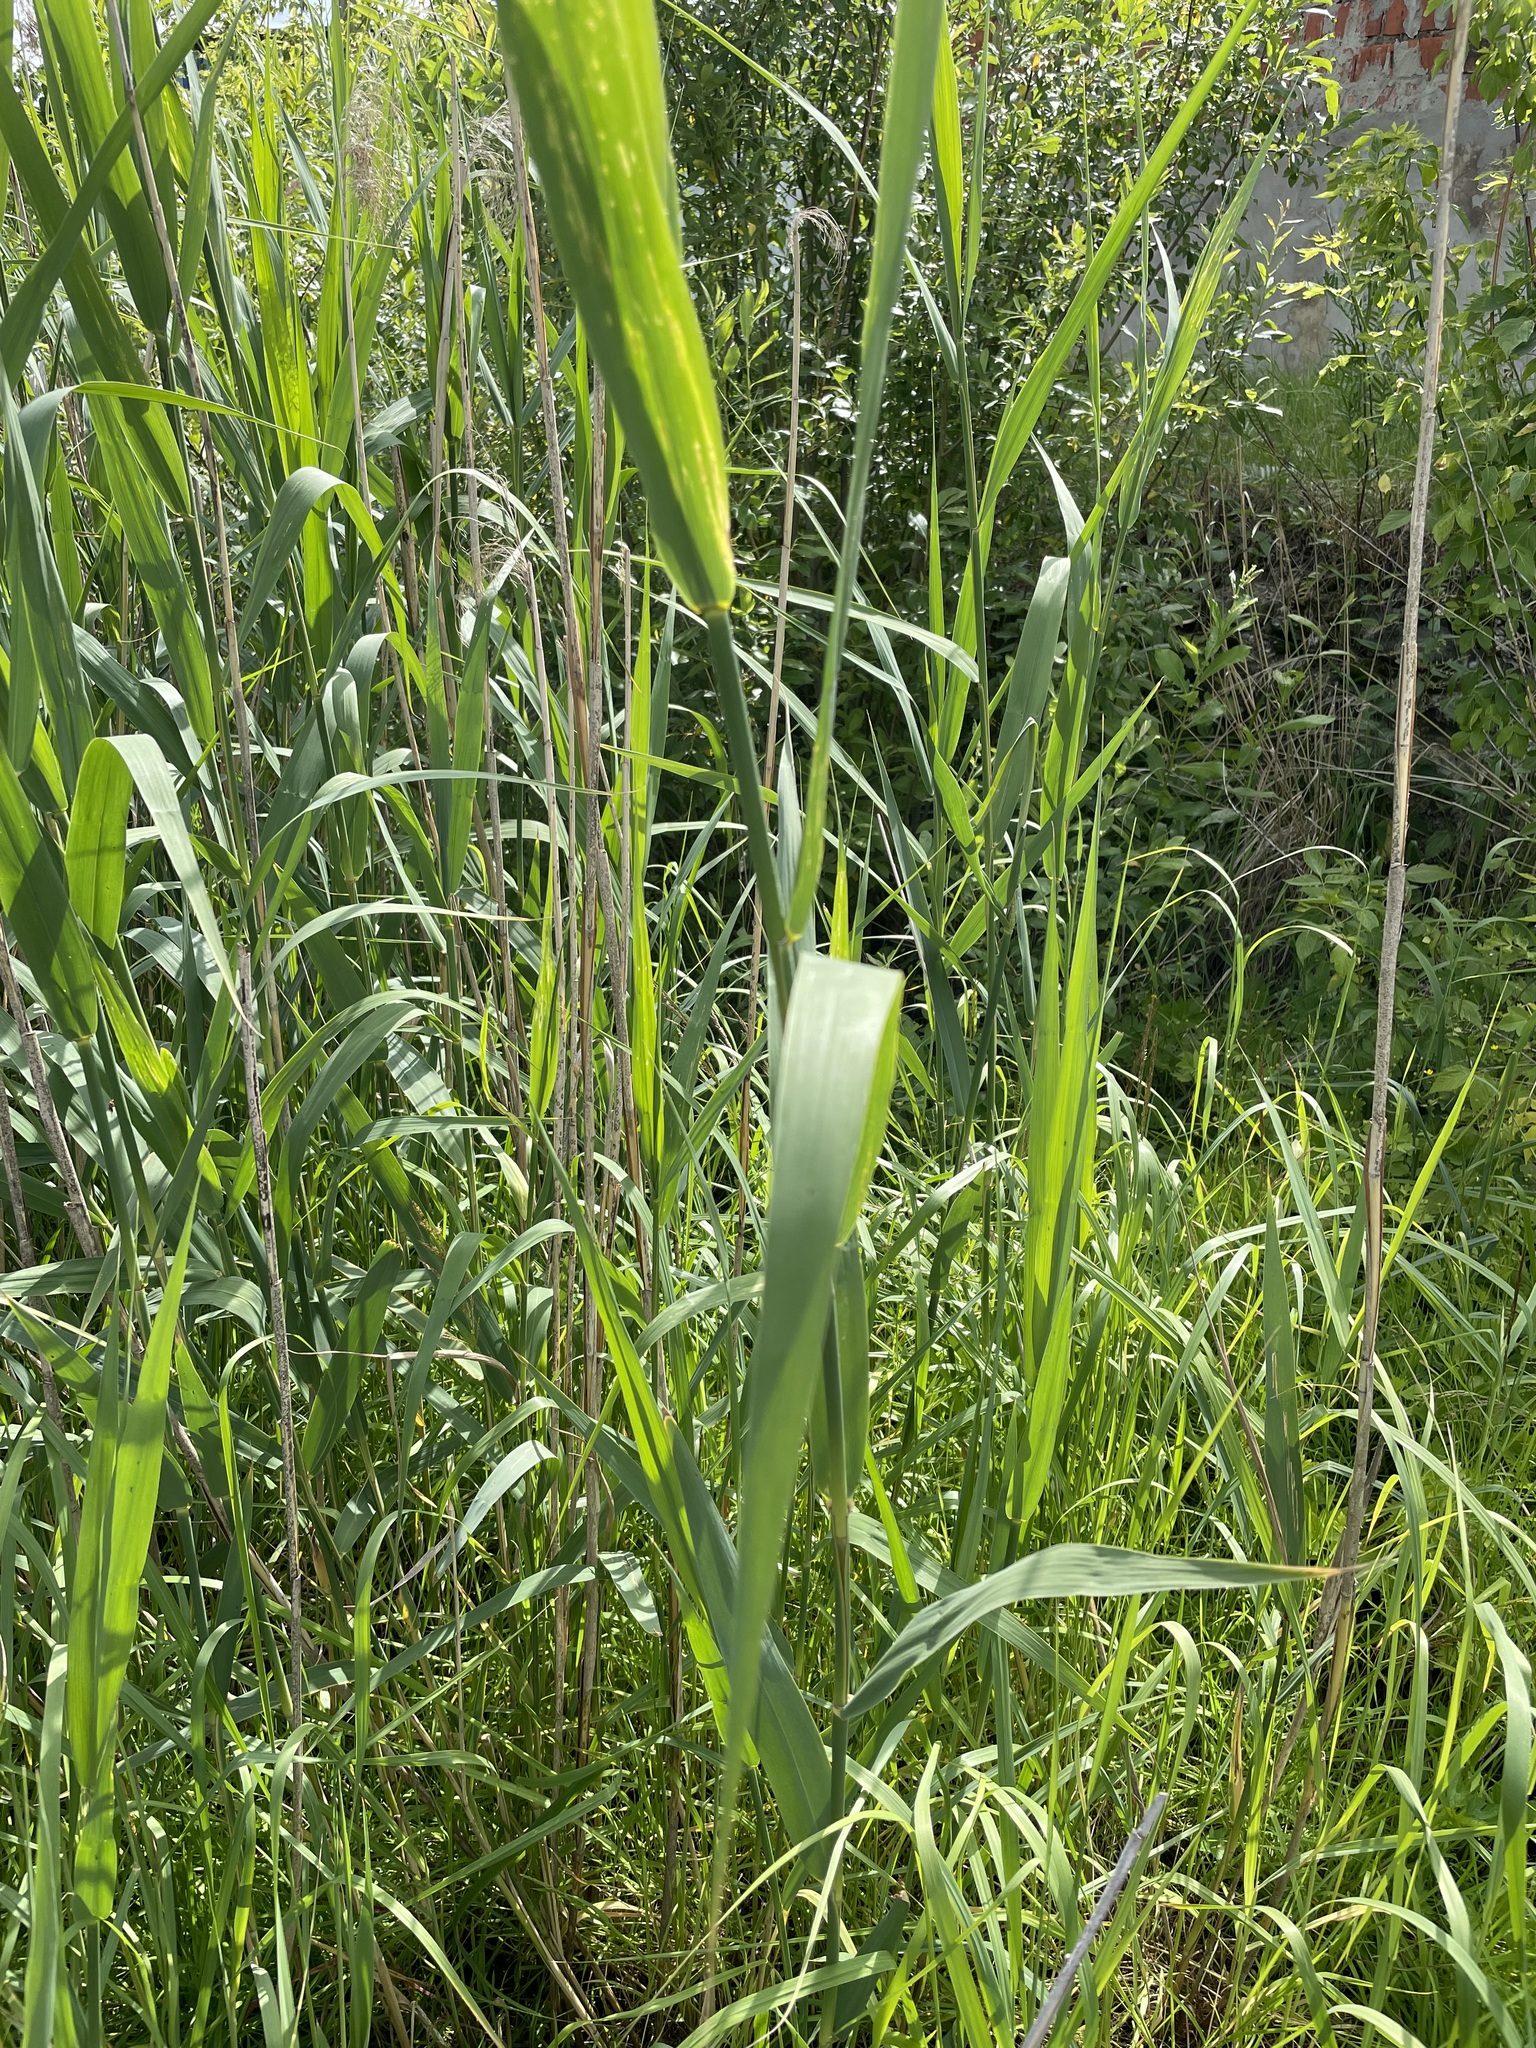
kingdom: Plantae
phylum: Tracheophyta
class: Liliopsida
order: Poales
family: Poaceae
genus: Phragmites
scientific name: Phragmites australis
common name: Common reed
